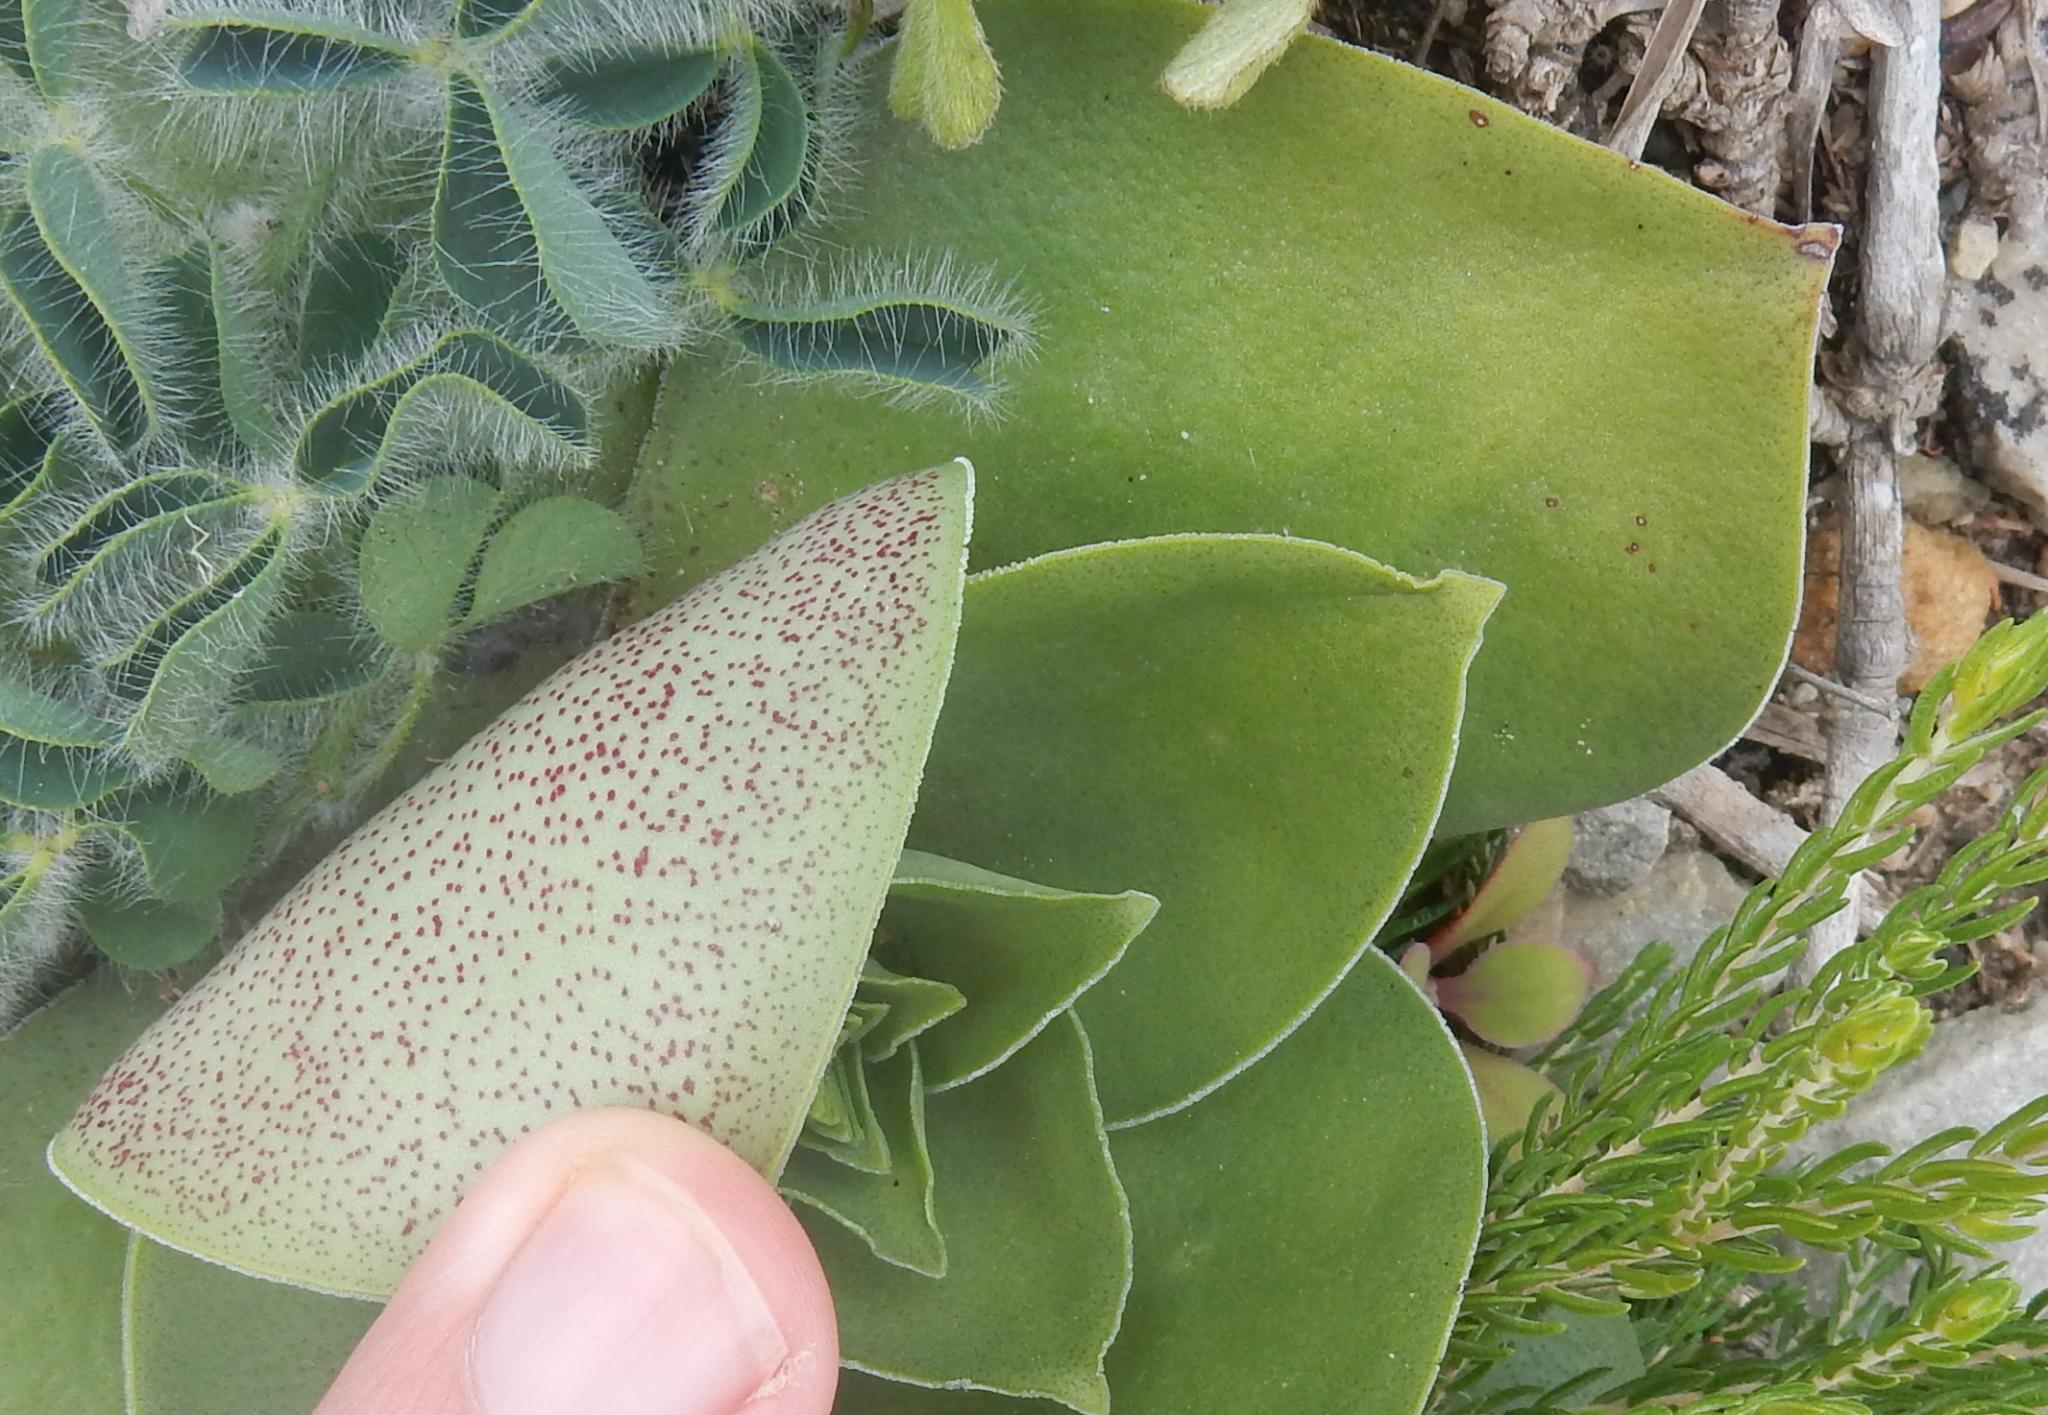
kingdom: Plantae
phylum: Tracheophyta
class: Magnoliopsida
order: Saxifragales
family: Crassulaceae
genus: Crassula
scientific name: Crassula capitella
